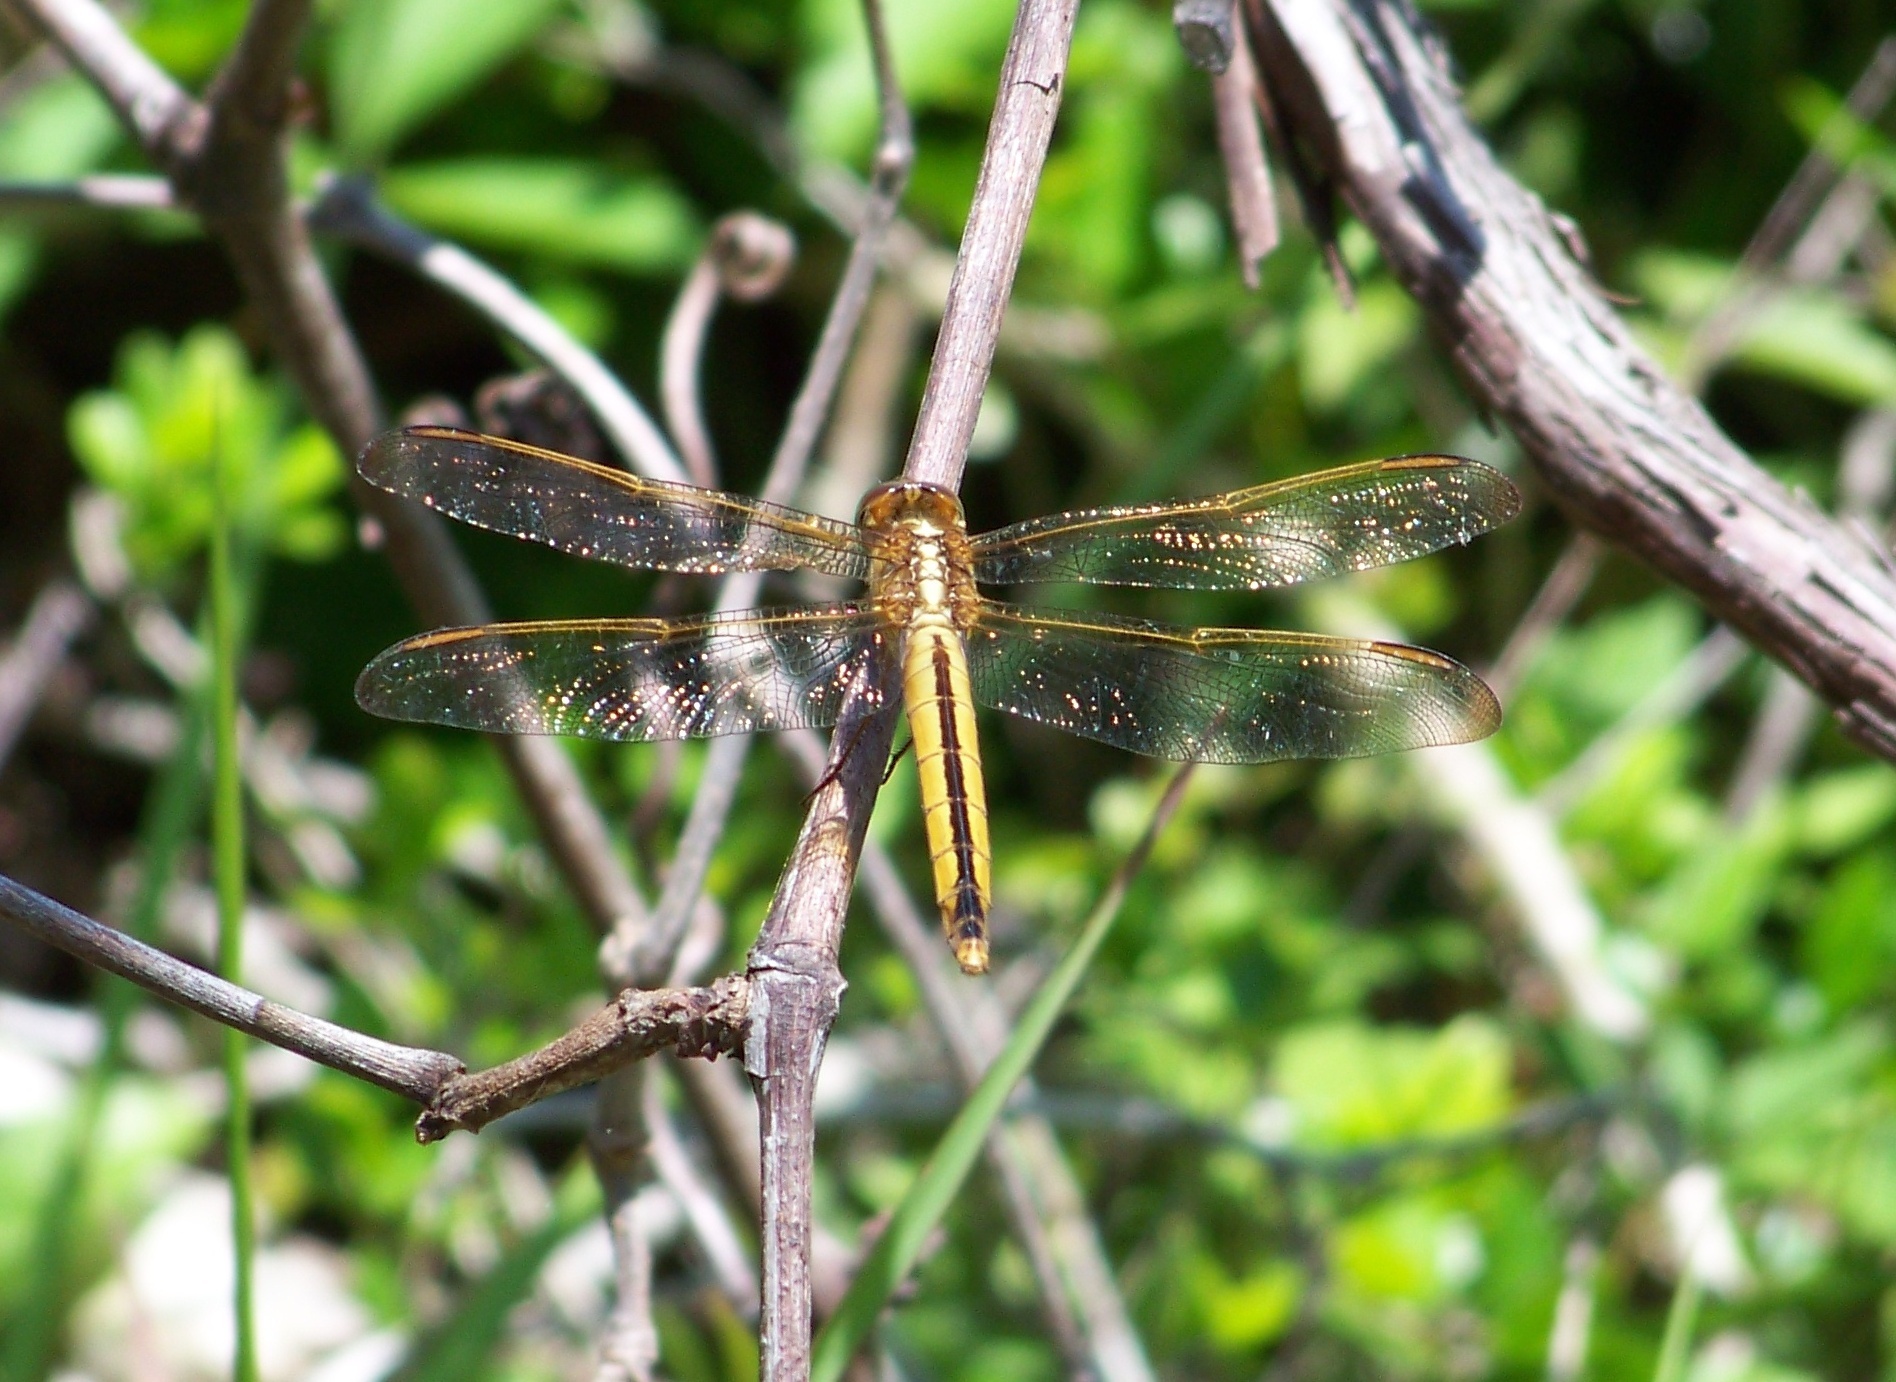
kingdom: Animalia
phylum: Arthropoda
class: Insecta
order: Odonata
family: Libellulidae
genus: Libellula
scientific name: Libellula needhami
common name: Needham's skimmer
